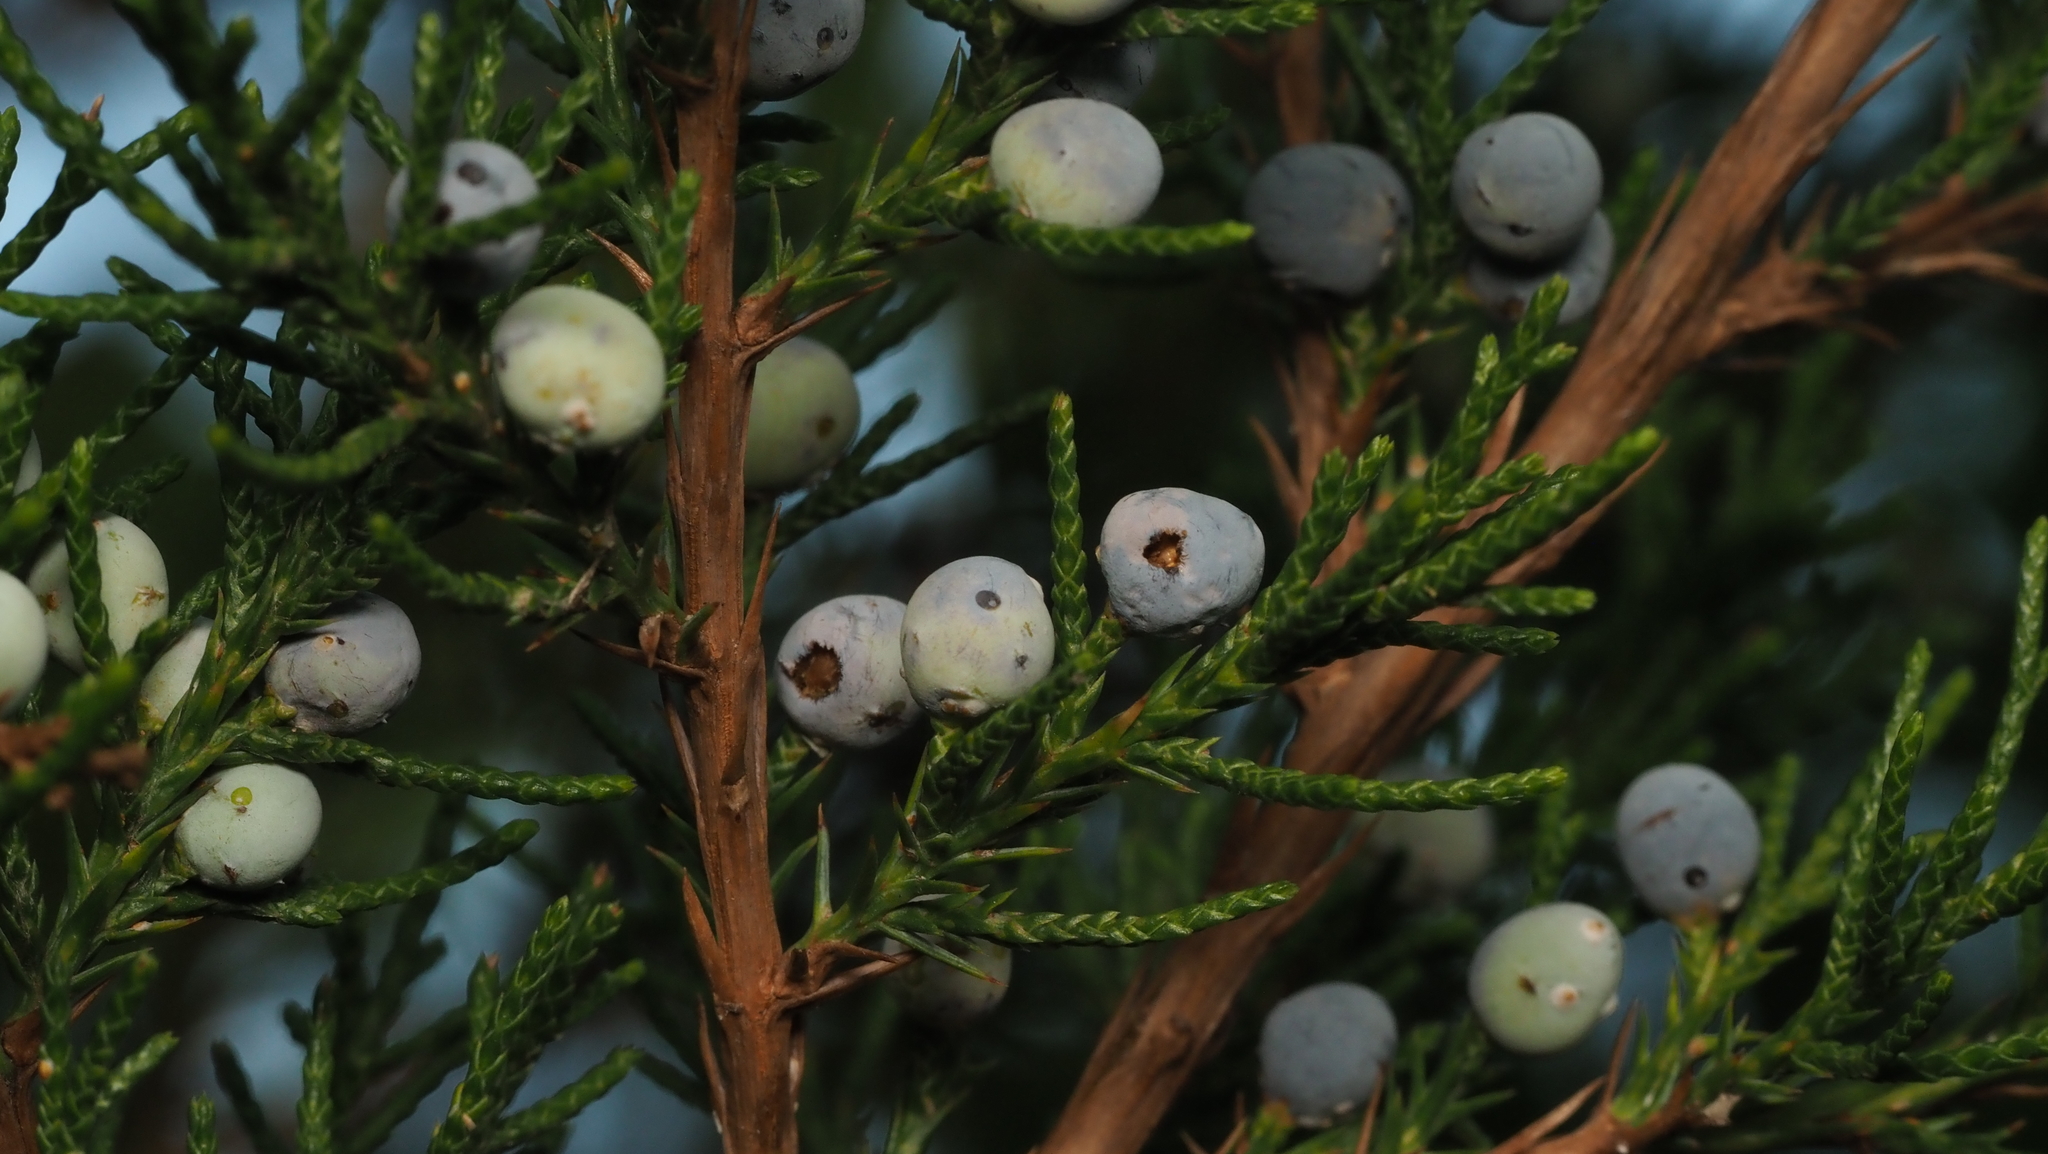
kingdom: Plantae
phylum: Tracheophyta
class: Pinopsida
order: Pinales
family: Cupressaceae
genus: Juniperus
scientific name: Juniperus virginiana
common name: Red juniper
